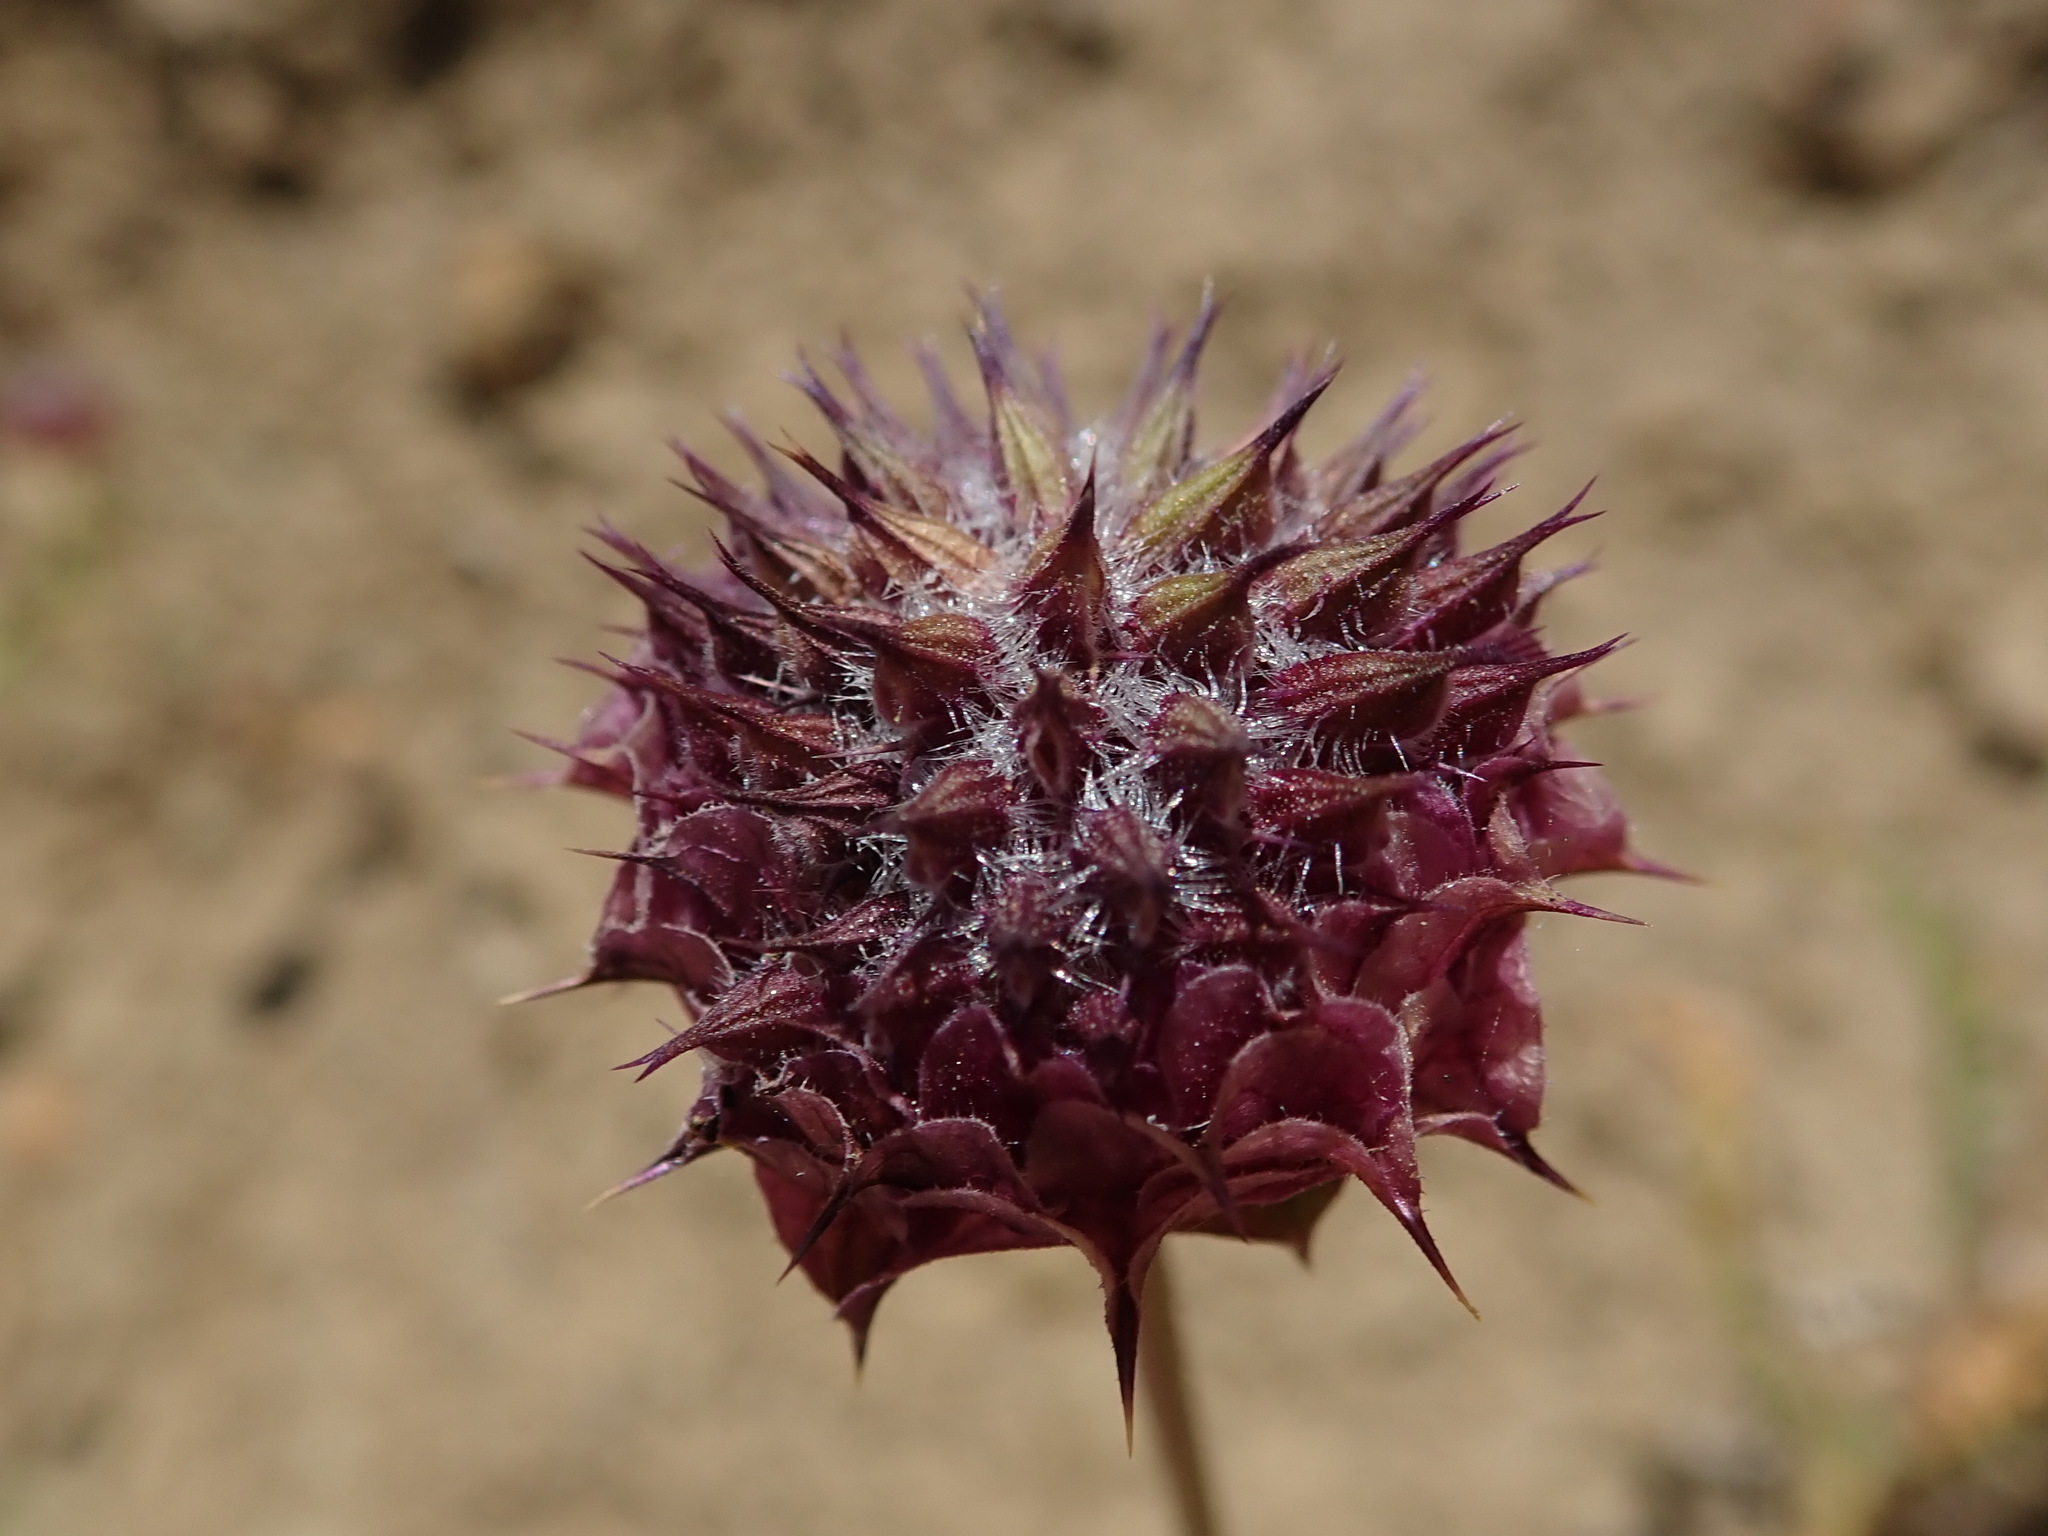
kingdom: Plantae
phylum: Tracheophyta
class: Magnoliopsida
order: Lamiales
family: Lamiaceae
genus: Salvia
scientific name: Salvia columbariae
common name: Chia
